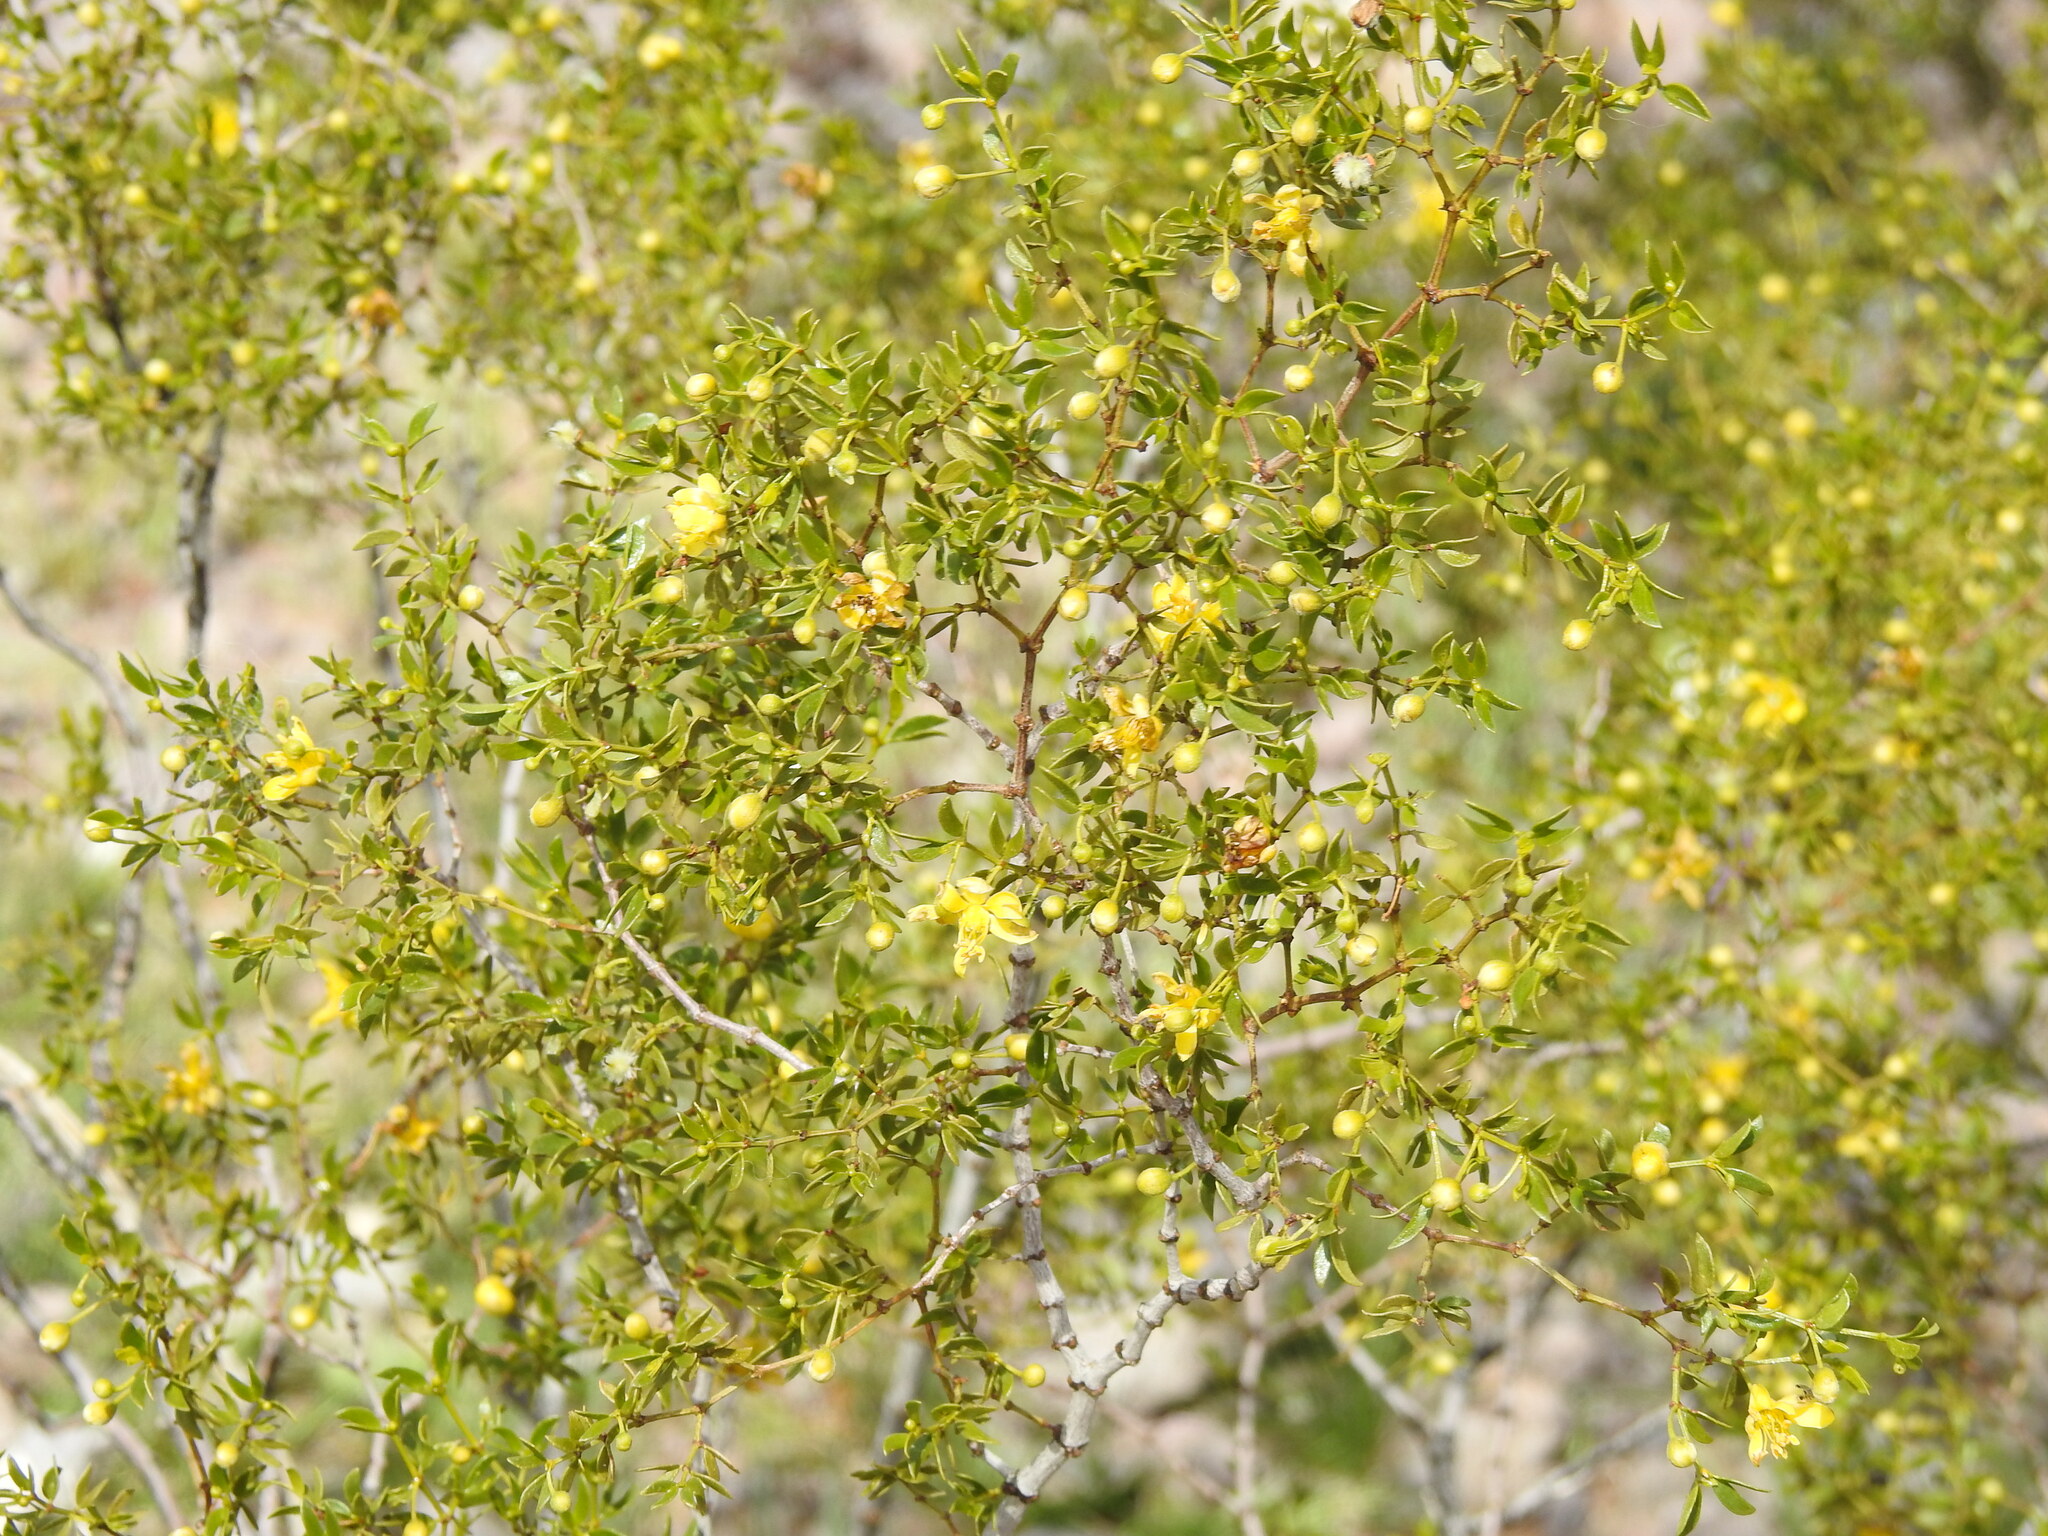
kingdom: Plantae
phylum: Tracheophyta
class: Magnoliopsida
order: Zygophyllales
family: Zygophyllaceae
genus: Larrea
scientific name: Larrea tridentata
